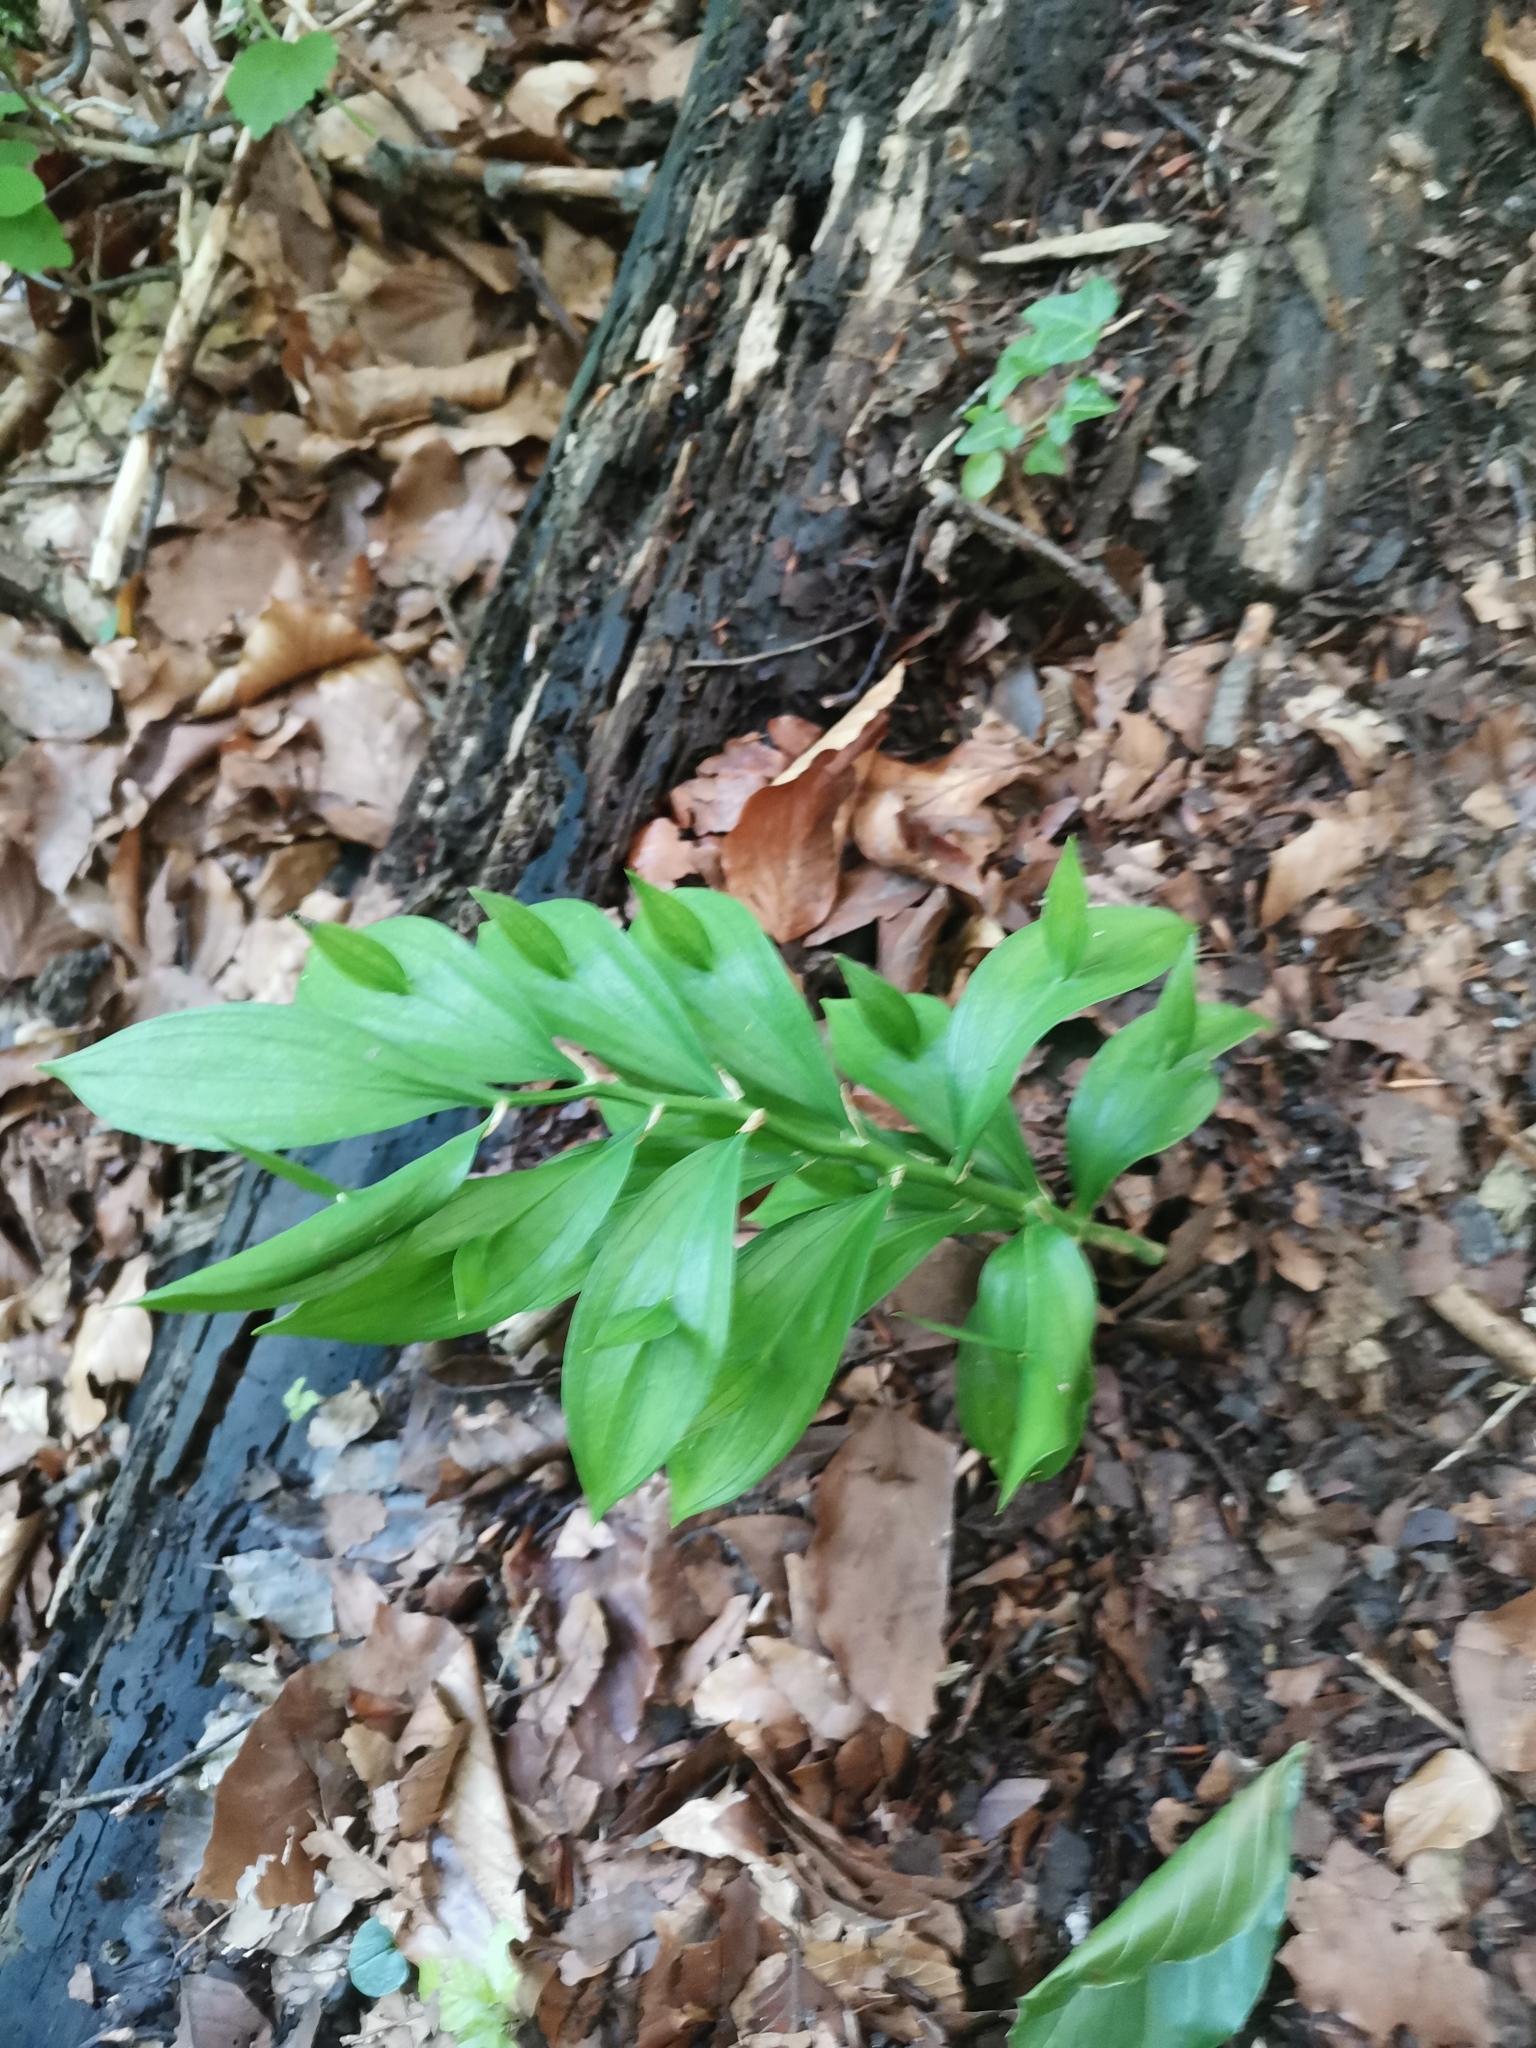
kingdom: Plantae
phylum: Tracheophyta
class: Liliopsida
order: Asparagales
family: Asparagaceae
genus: Ruscus
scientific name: Ruscus hypoglossum
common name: Spineless butcher's-broom
